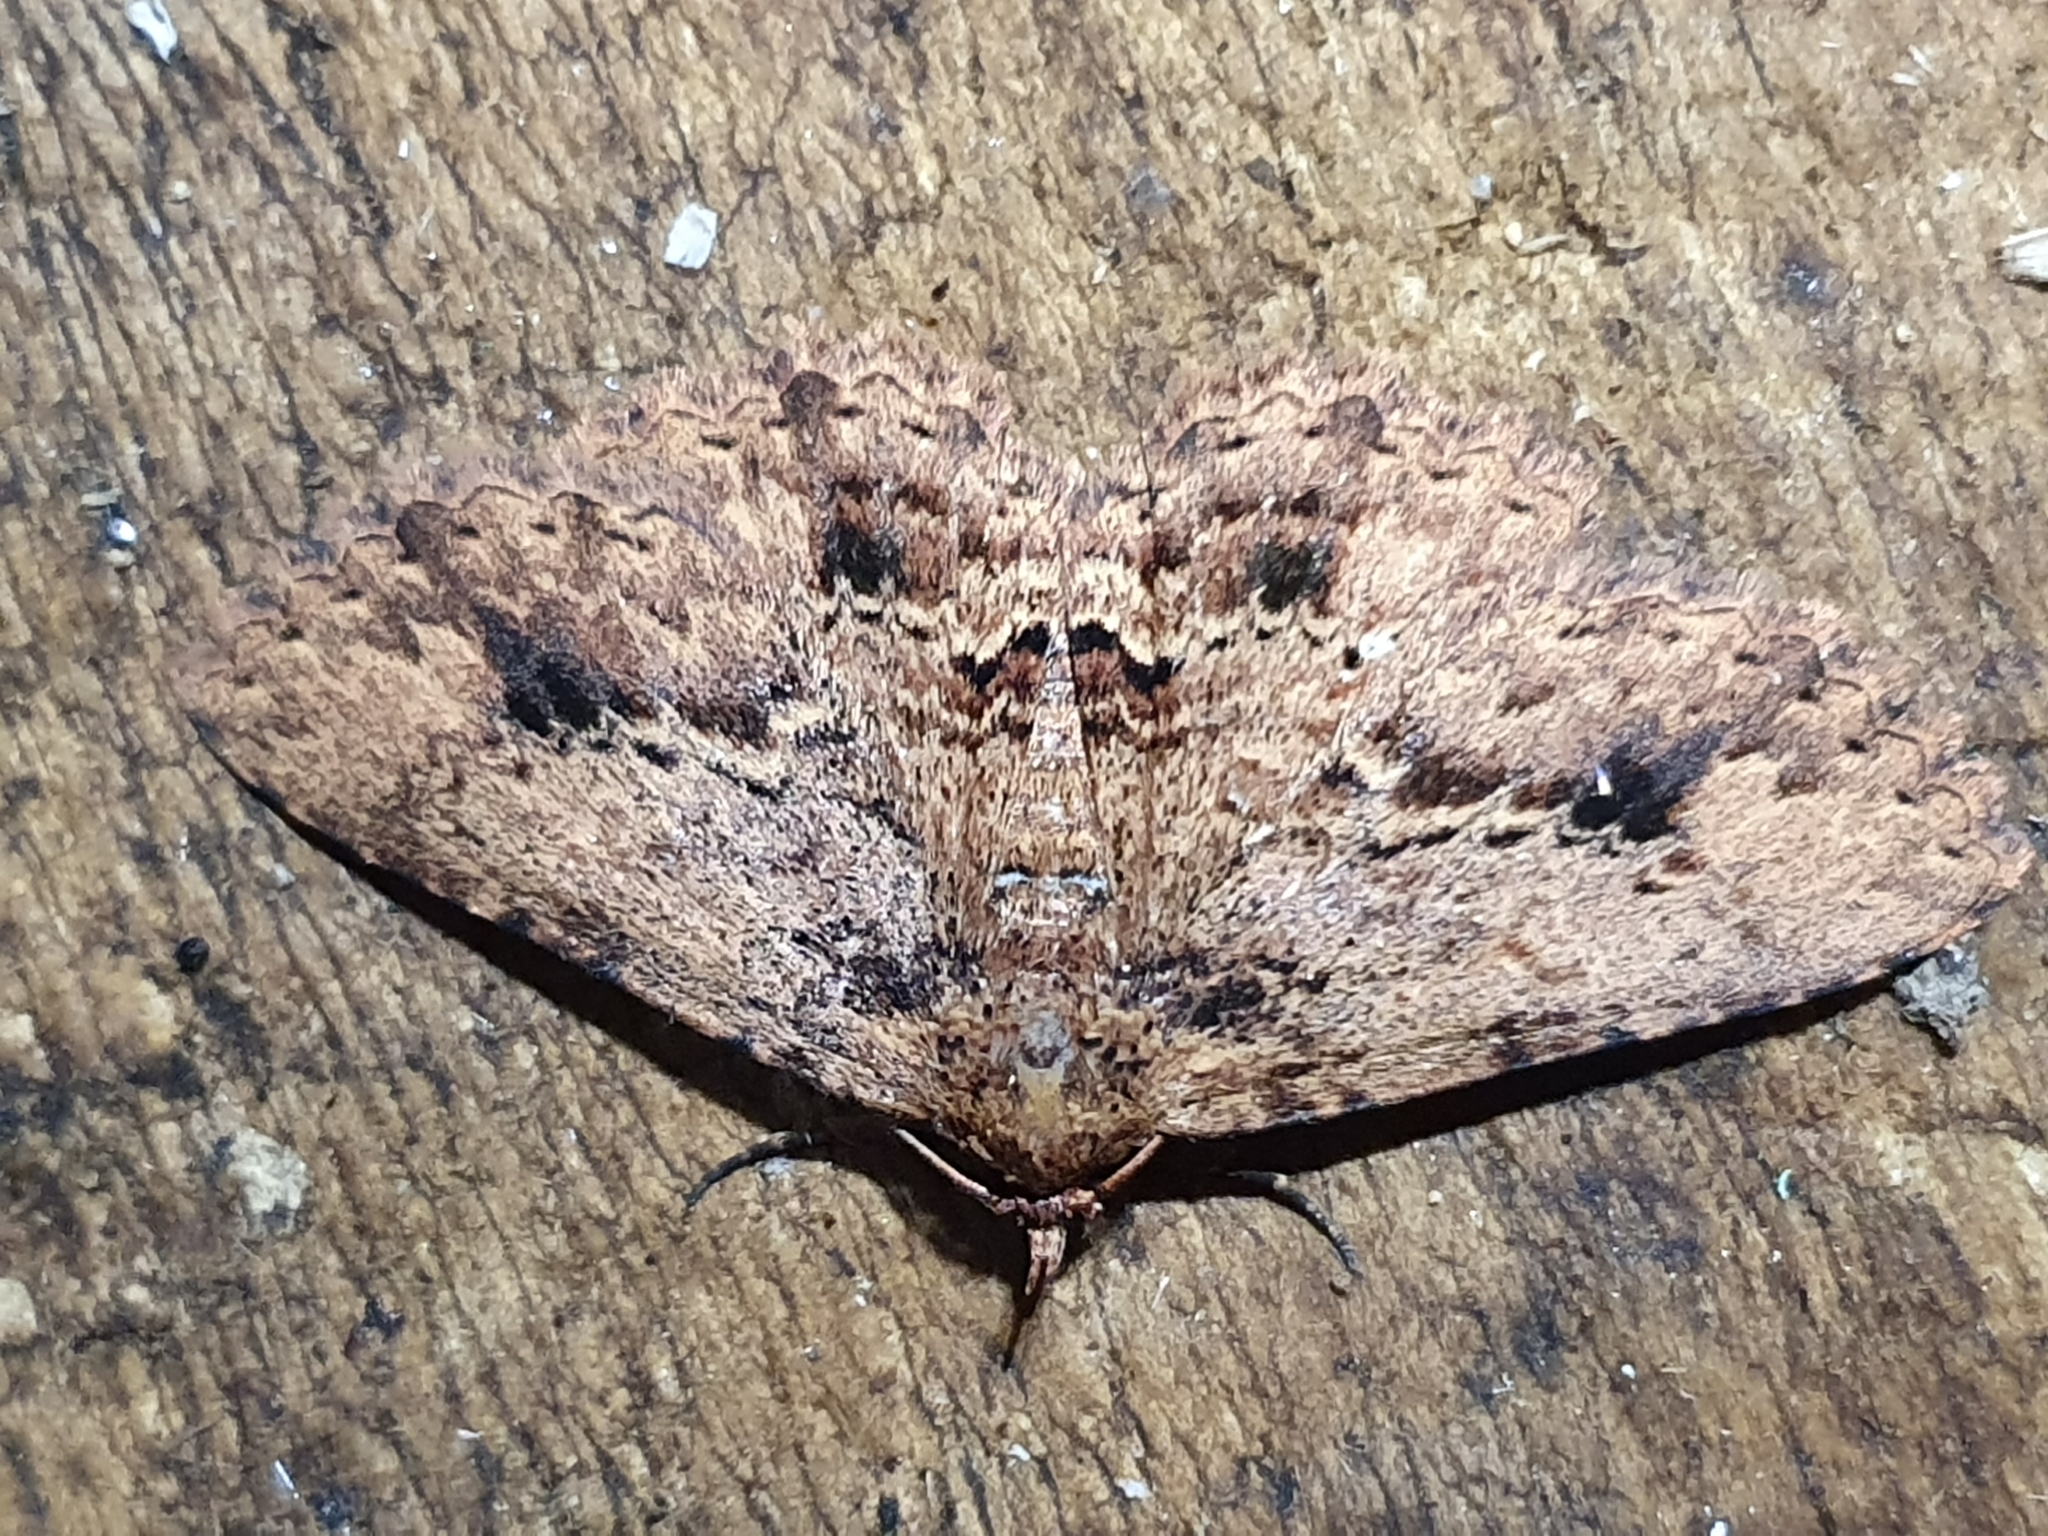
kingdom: Animalia
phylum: Arthropoda
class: Insecta
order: Lepidoptera
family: Erebidae
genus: Artigisa
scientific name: Artigisa melanephele
